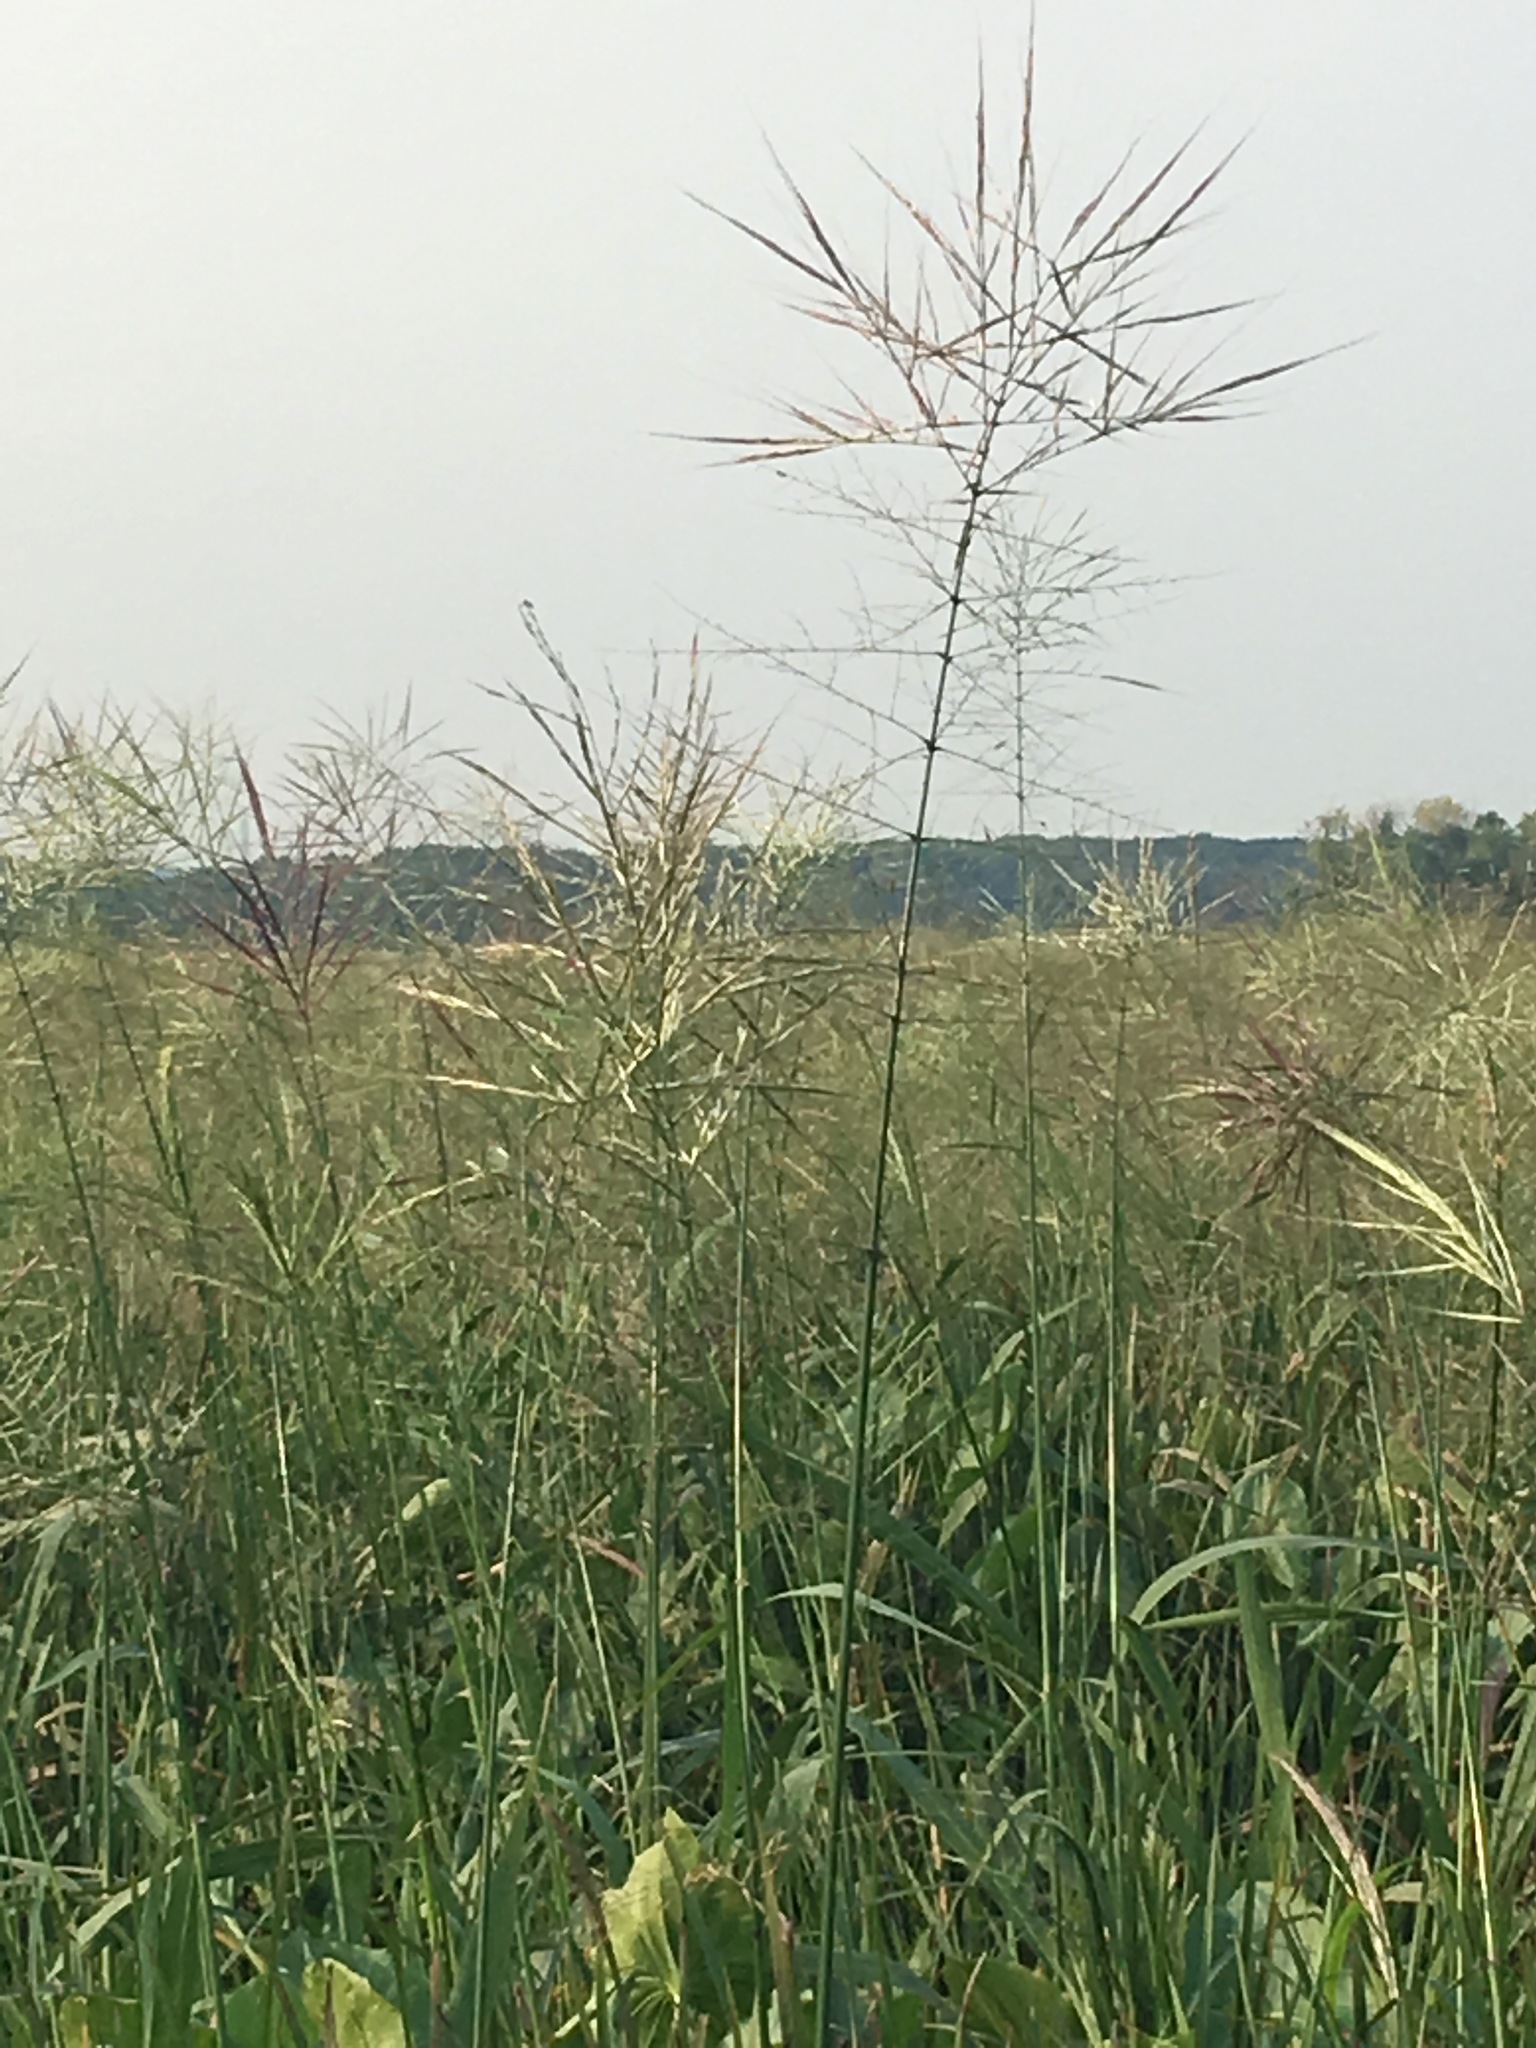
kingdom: Plantae
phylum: Tracheophyta
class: Liliopsida
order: Poales
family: Poaceae
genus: Zizania
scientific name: Zizania palustris
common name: Northern wild rice
